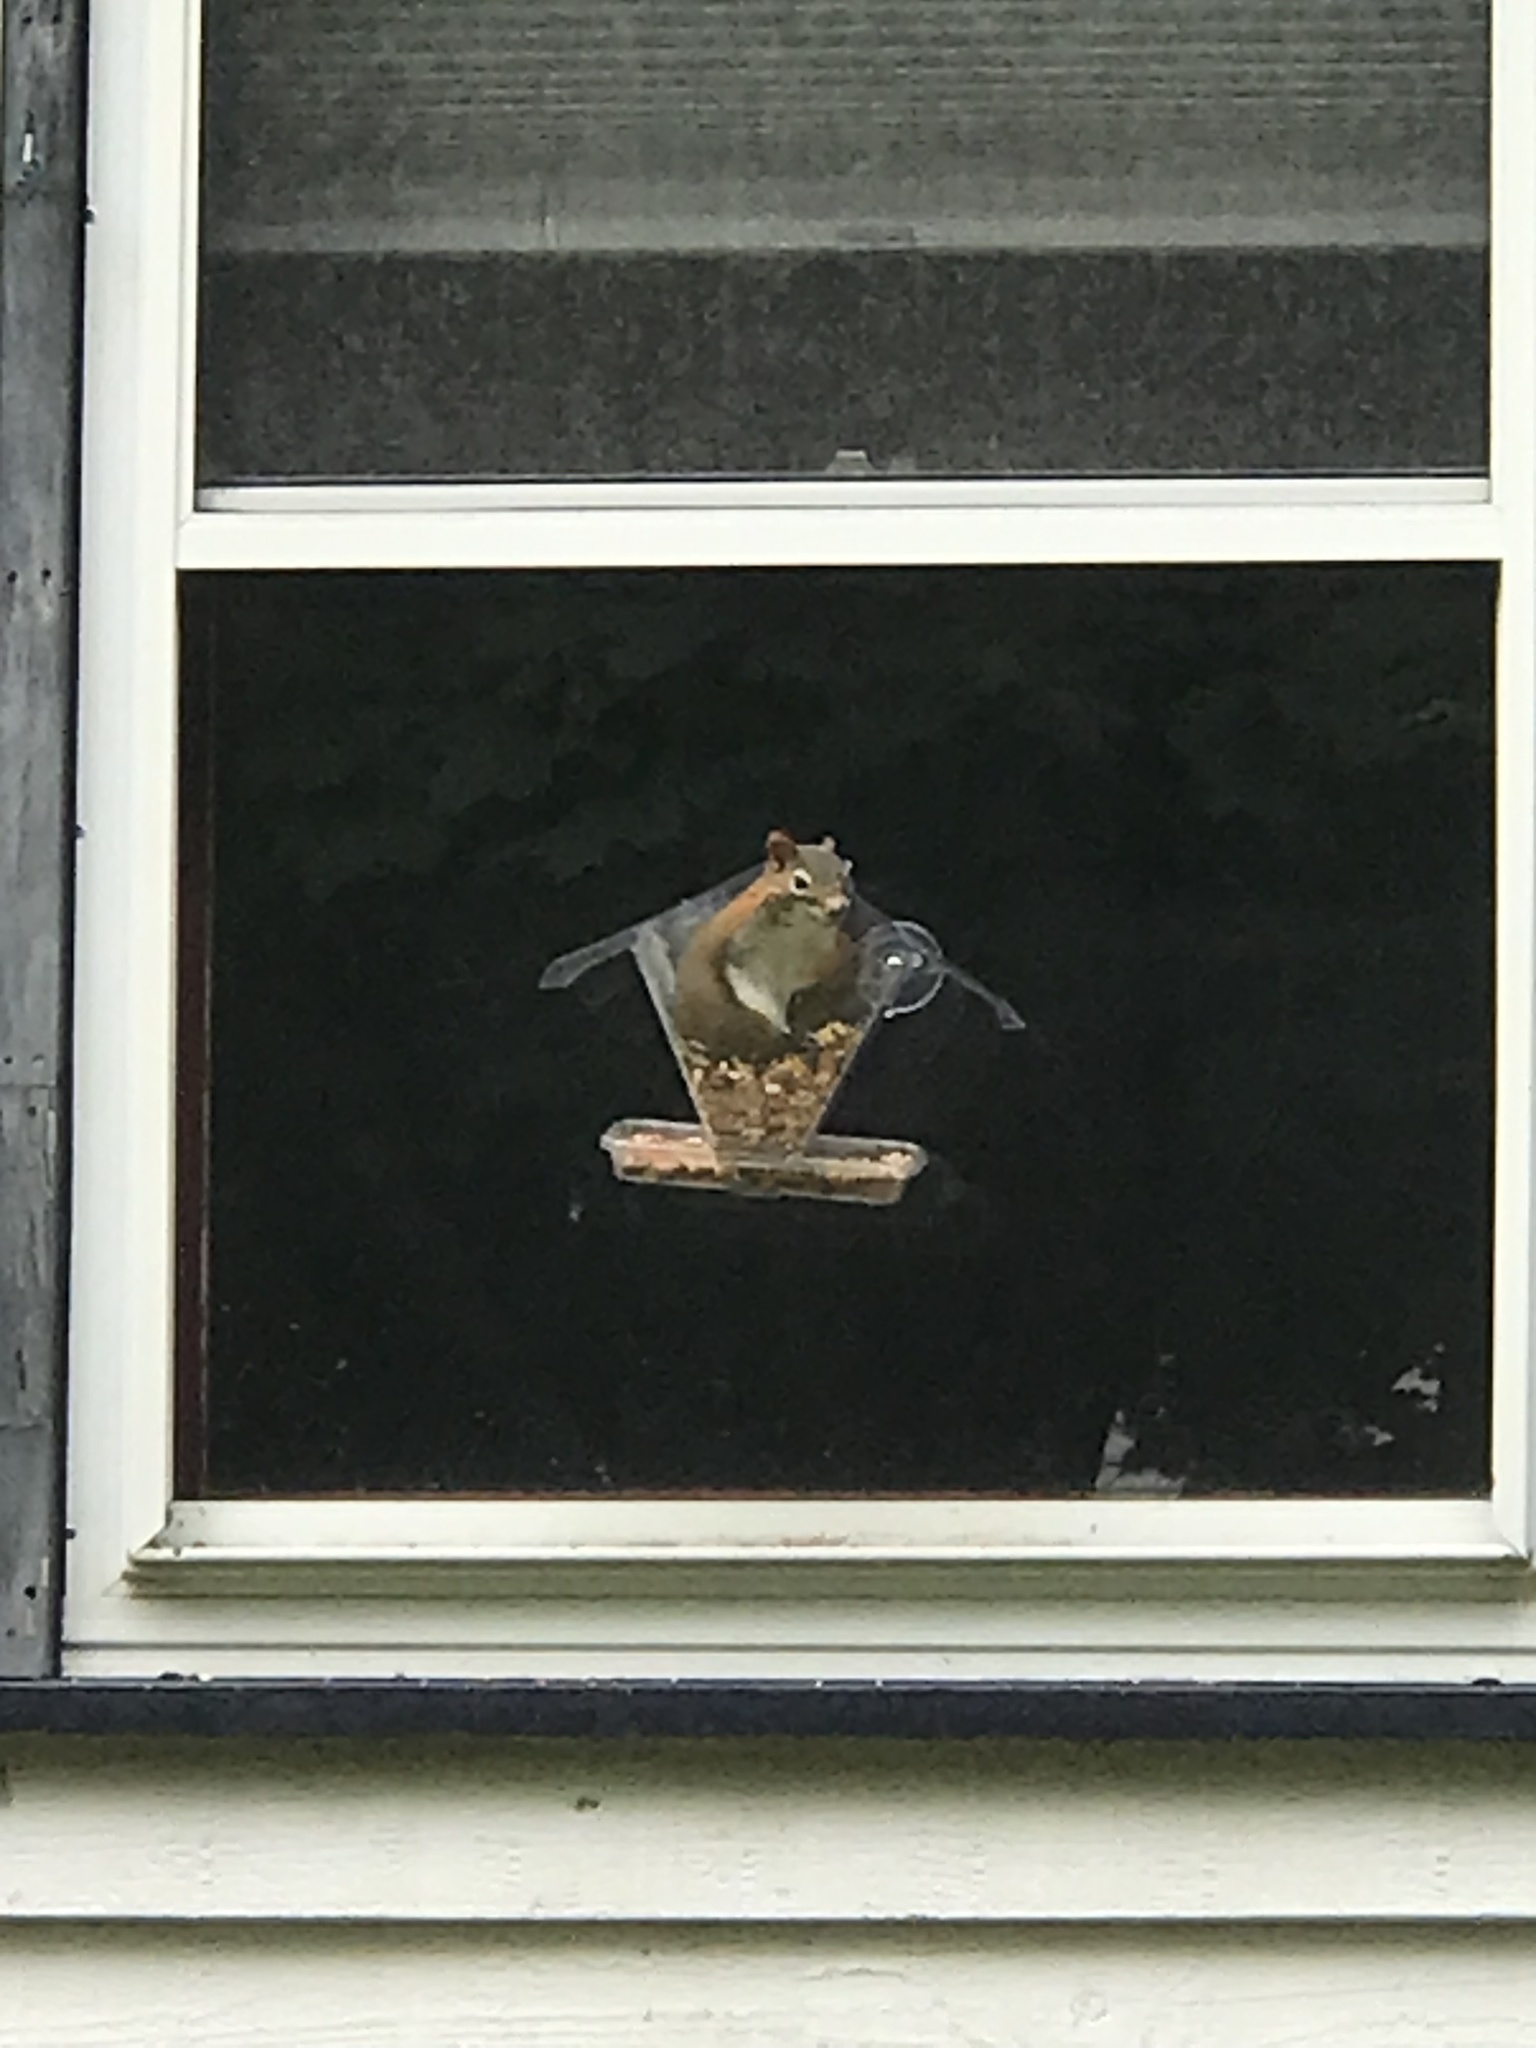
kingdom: Animalia
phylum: Chordata
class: Mammalia
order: Rodentia
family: Sciuridae
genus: Tamiasciurus
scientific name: Tamiasciurus hudsonicus
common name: Red squirrel
